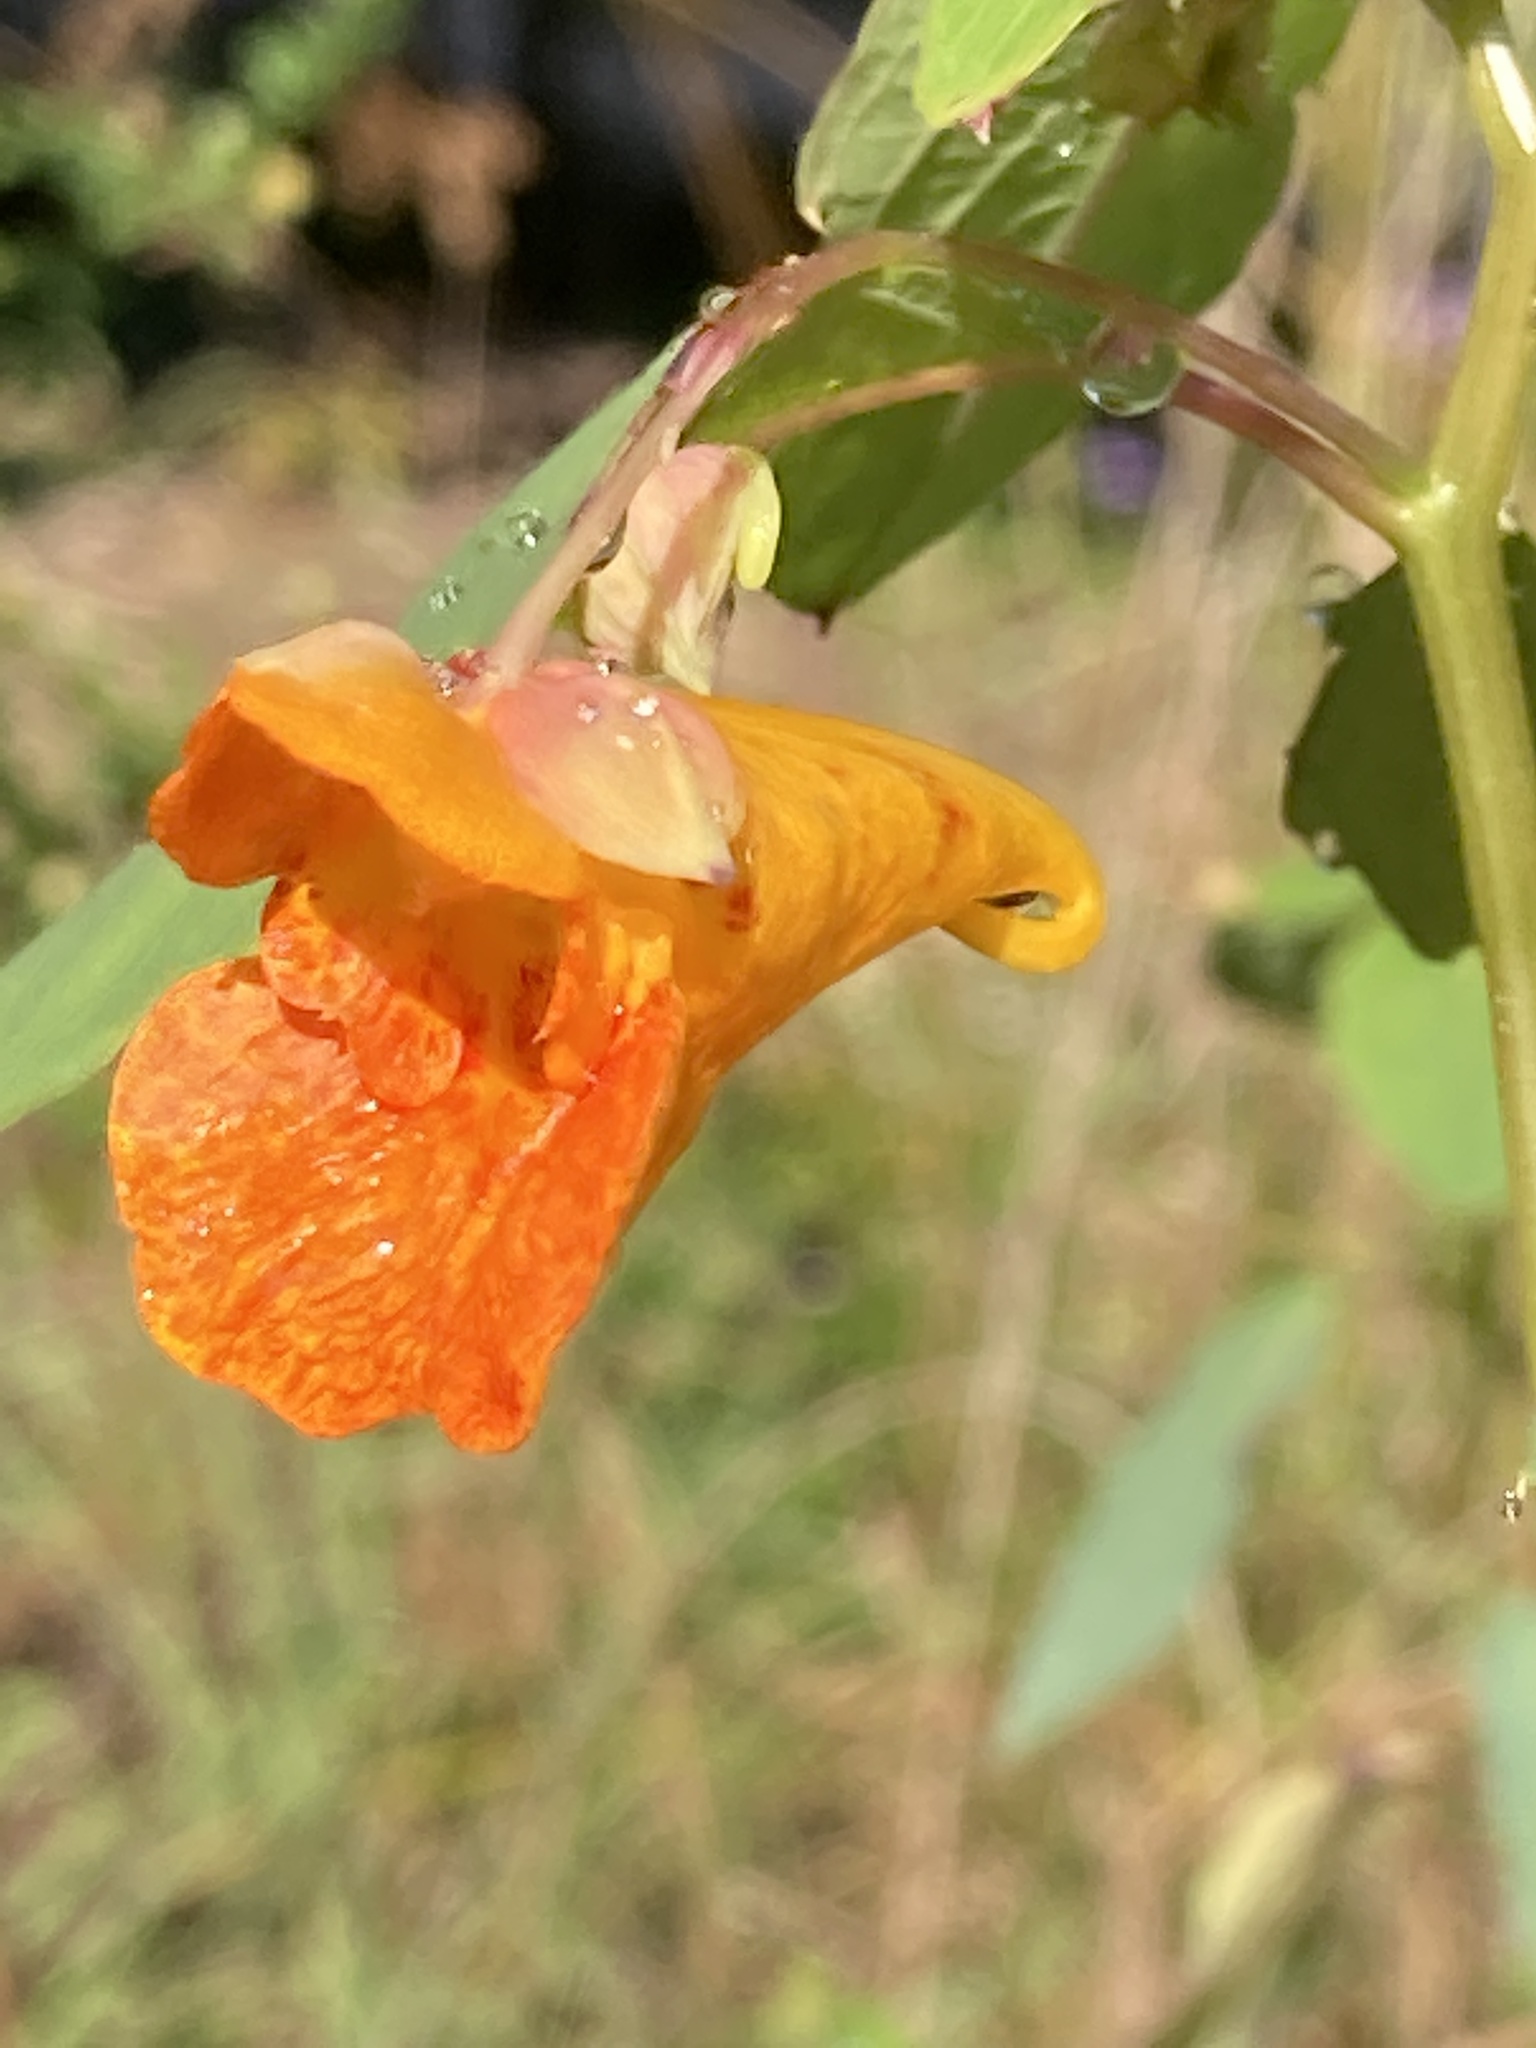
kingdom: Plantae
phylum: Tracheophyta
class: Magnoliopsida
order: Ericales
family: Balsaminaceae
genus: Impatiens
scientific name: Impatiens capensis
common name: Orange balsam
